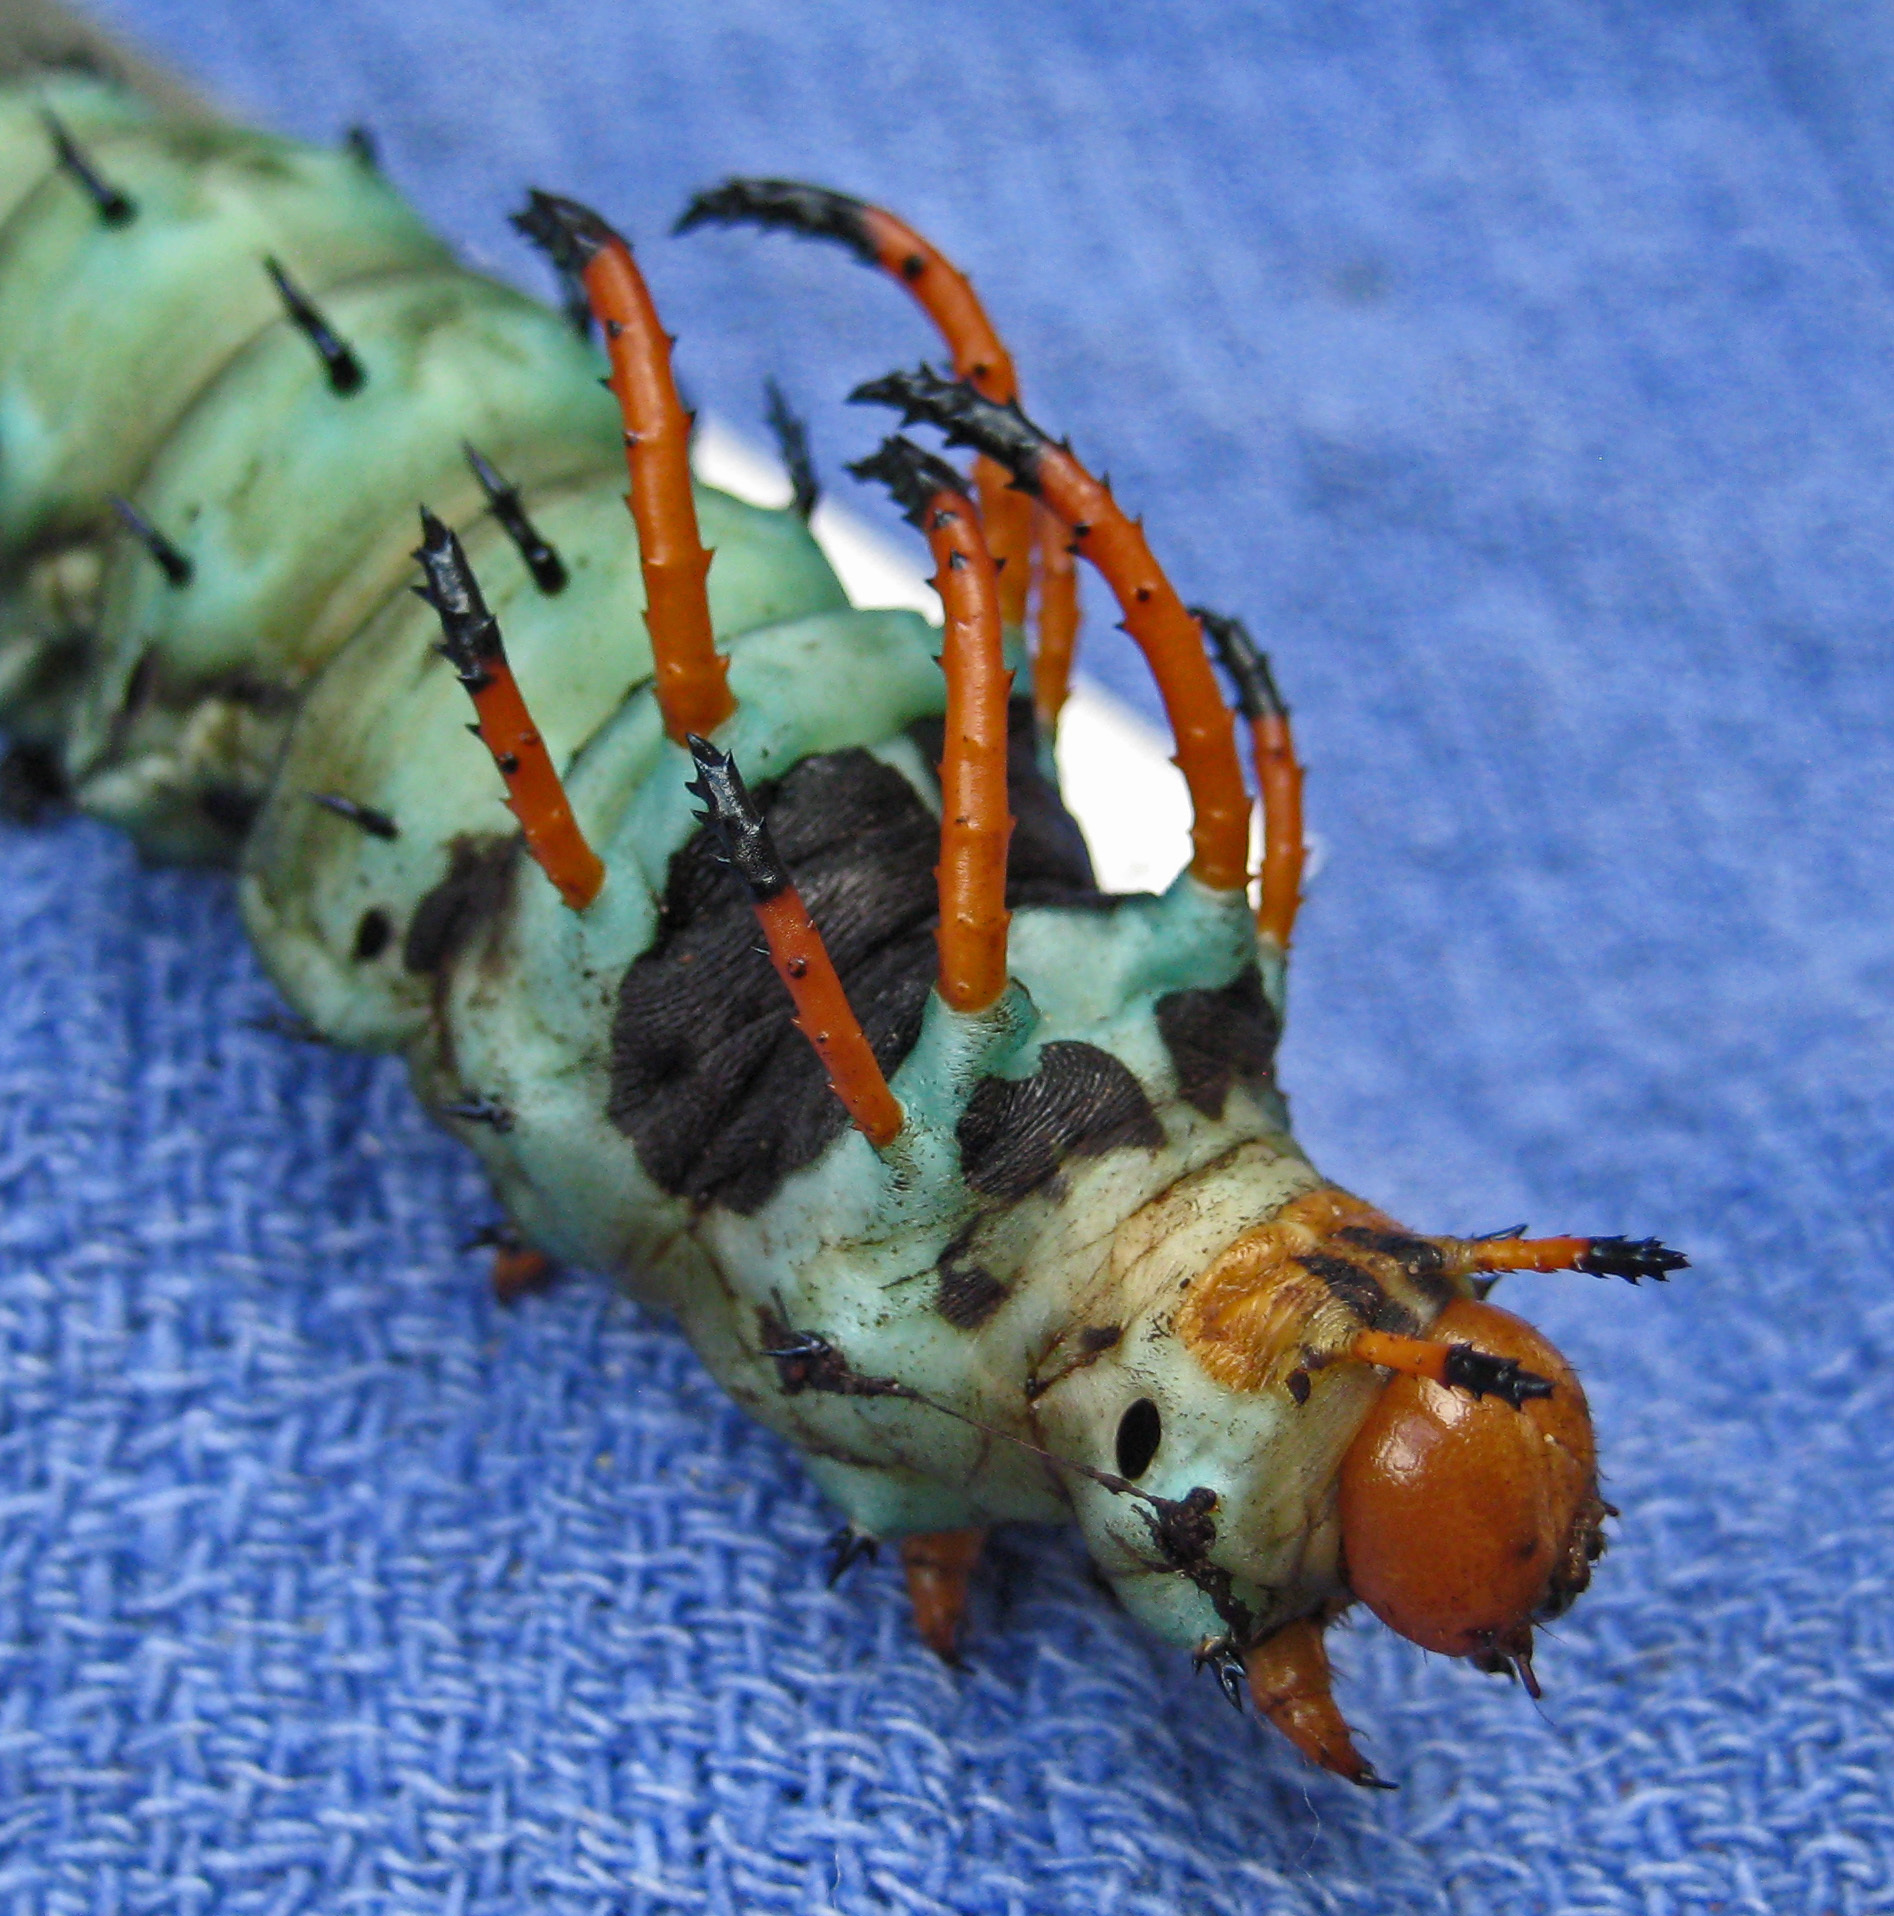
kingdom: Animalia
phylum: Arthropoda
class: Insecta
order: Lepidoptera
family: Saturniidae
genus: Citheronia
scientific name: Citheronia regalis
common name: Hickory horned devil
